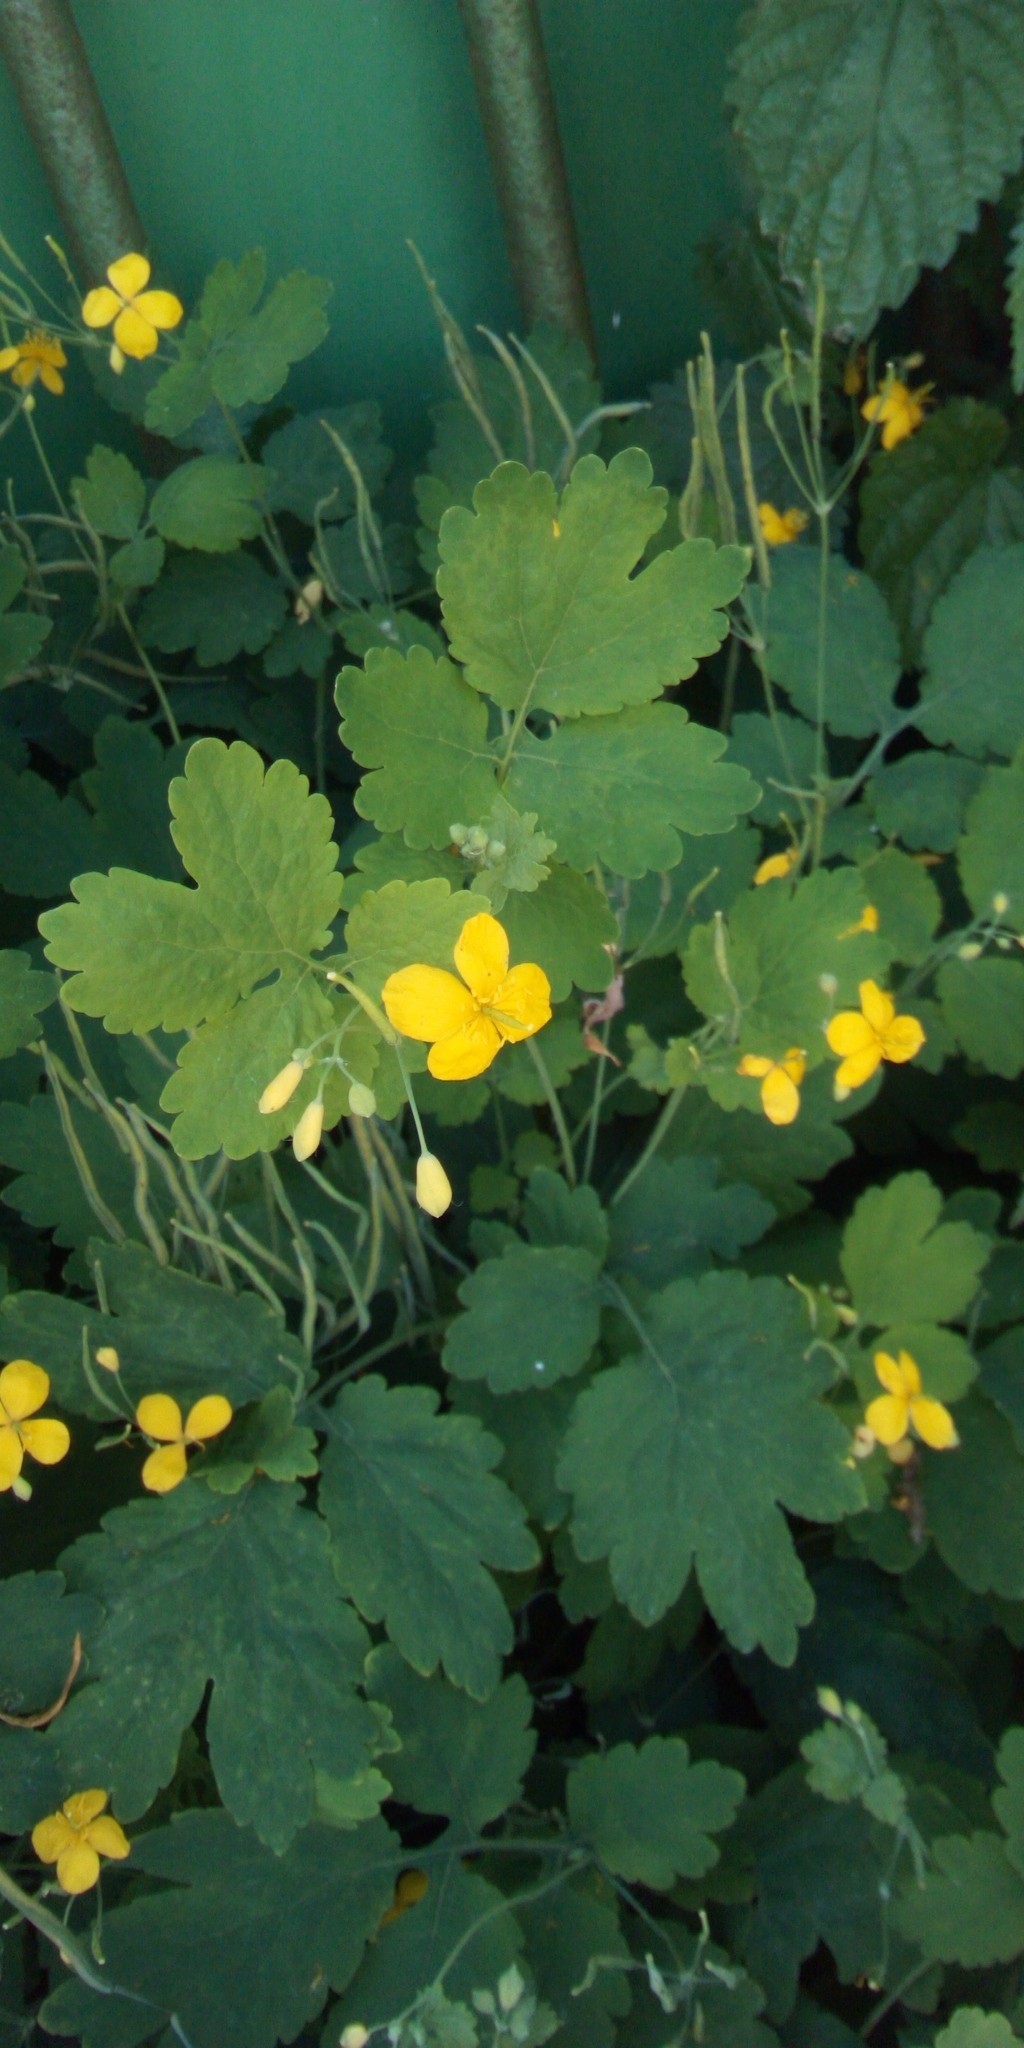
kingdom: Plantae
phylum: Tracheophyta
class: Magnoliopsida
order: Ranunculales
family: Papaveraceae
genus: Chelidonium
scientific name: Chelidonium majus
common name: Greater celandine
